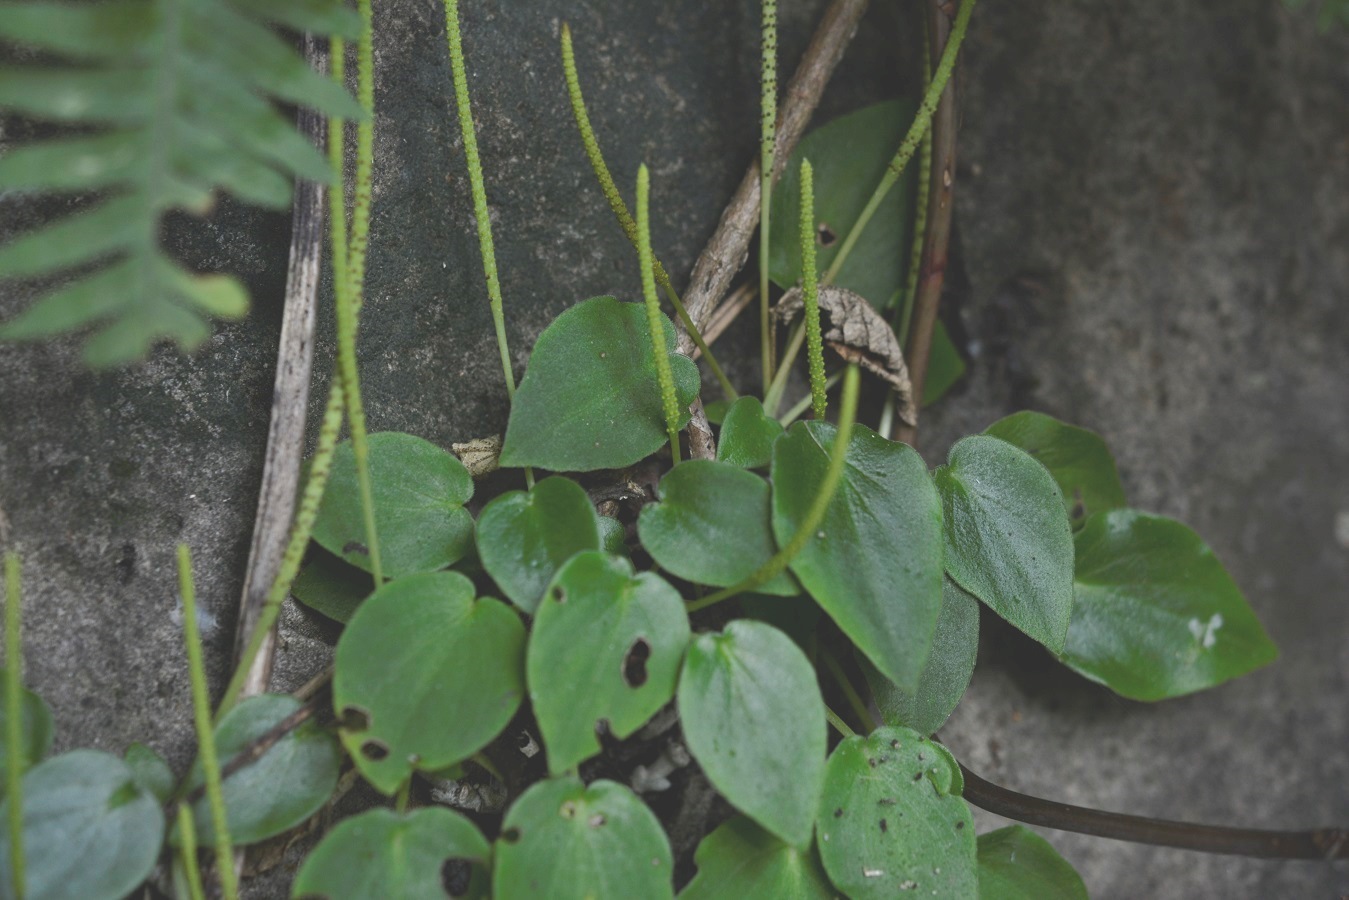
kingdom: Plantae
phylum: Tracheophyta
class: Magnoliopsida
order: Piperales
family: Piperaceae
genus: Peperomia
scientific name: Peperomia lanceolatopeltata
